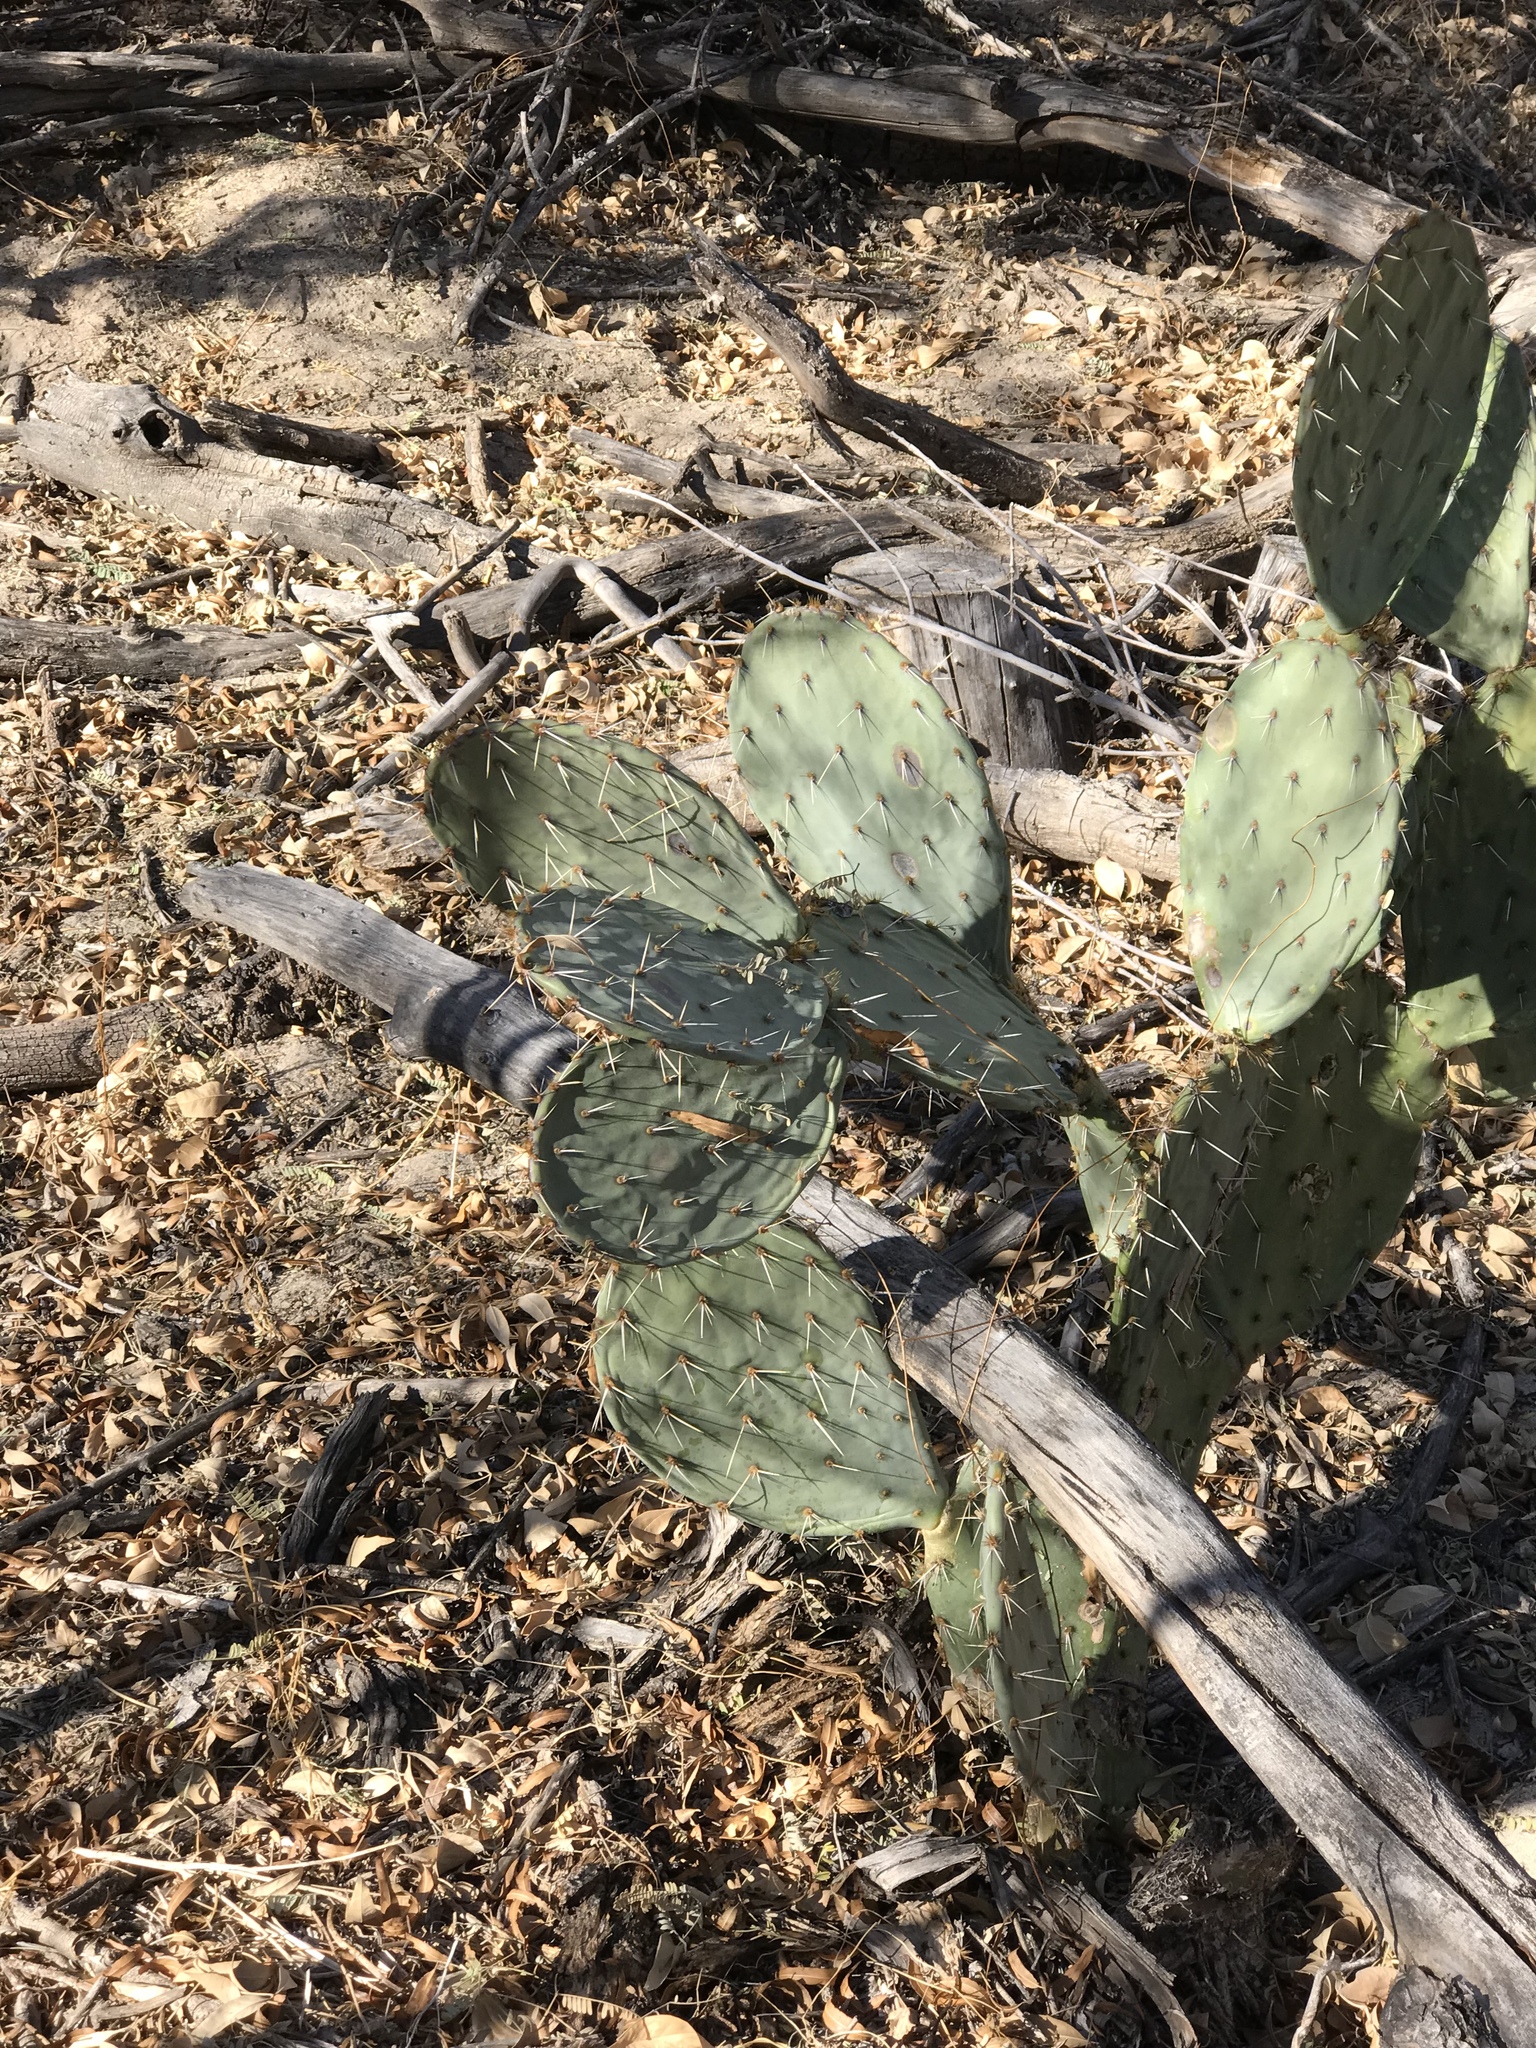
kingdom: Plantae
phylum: Tracheophyta
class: Magnoliopsida
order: Caryophyllales
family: Cactaceae
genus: Opuntia
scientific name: Opuntia chlorotica
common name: Dollar-joint prickly-pear
